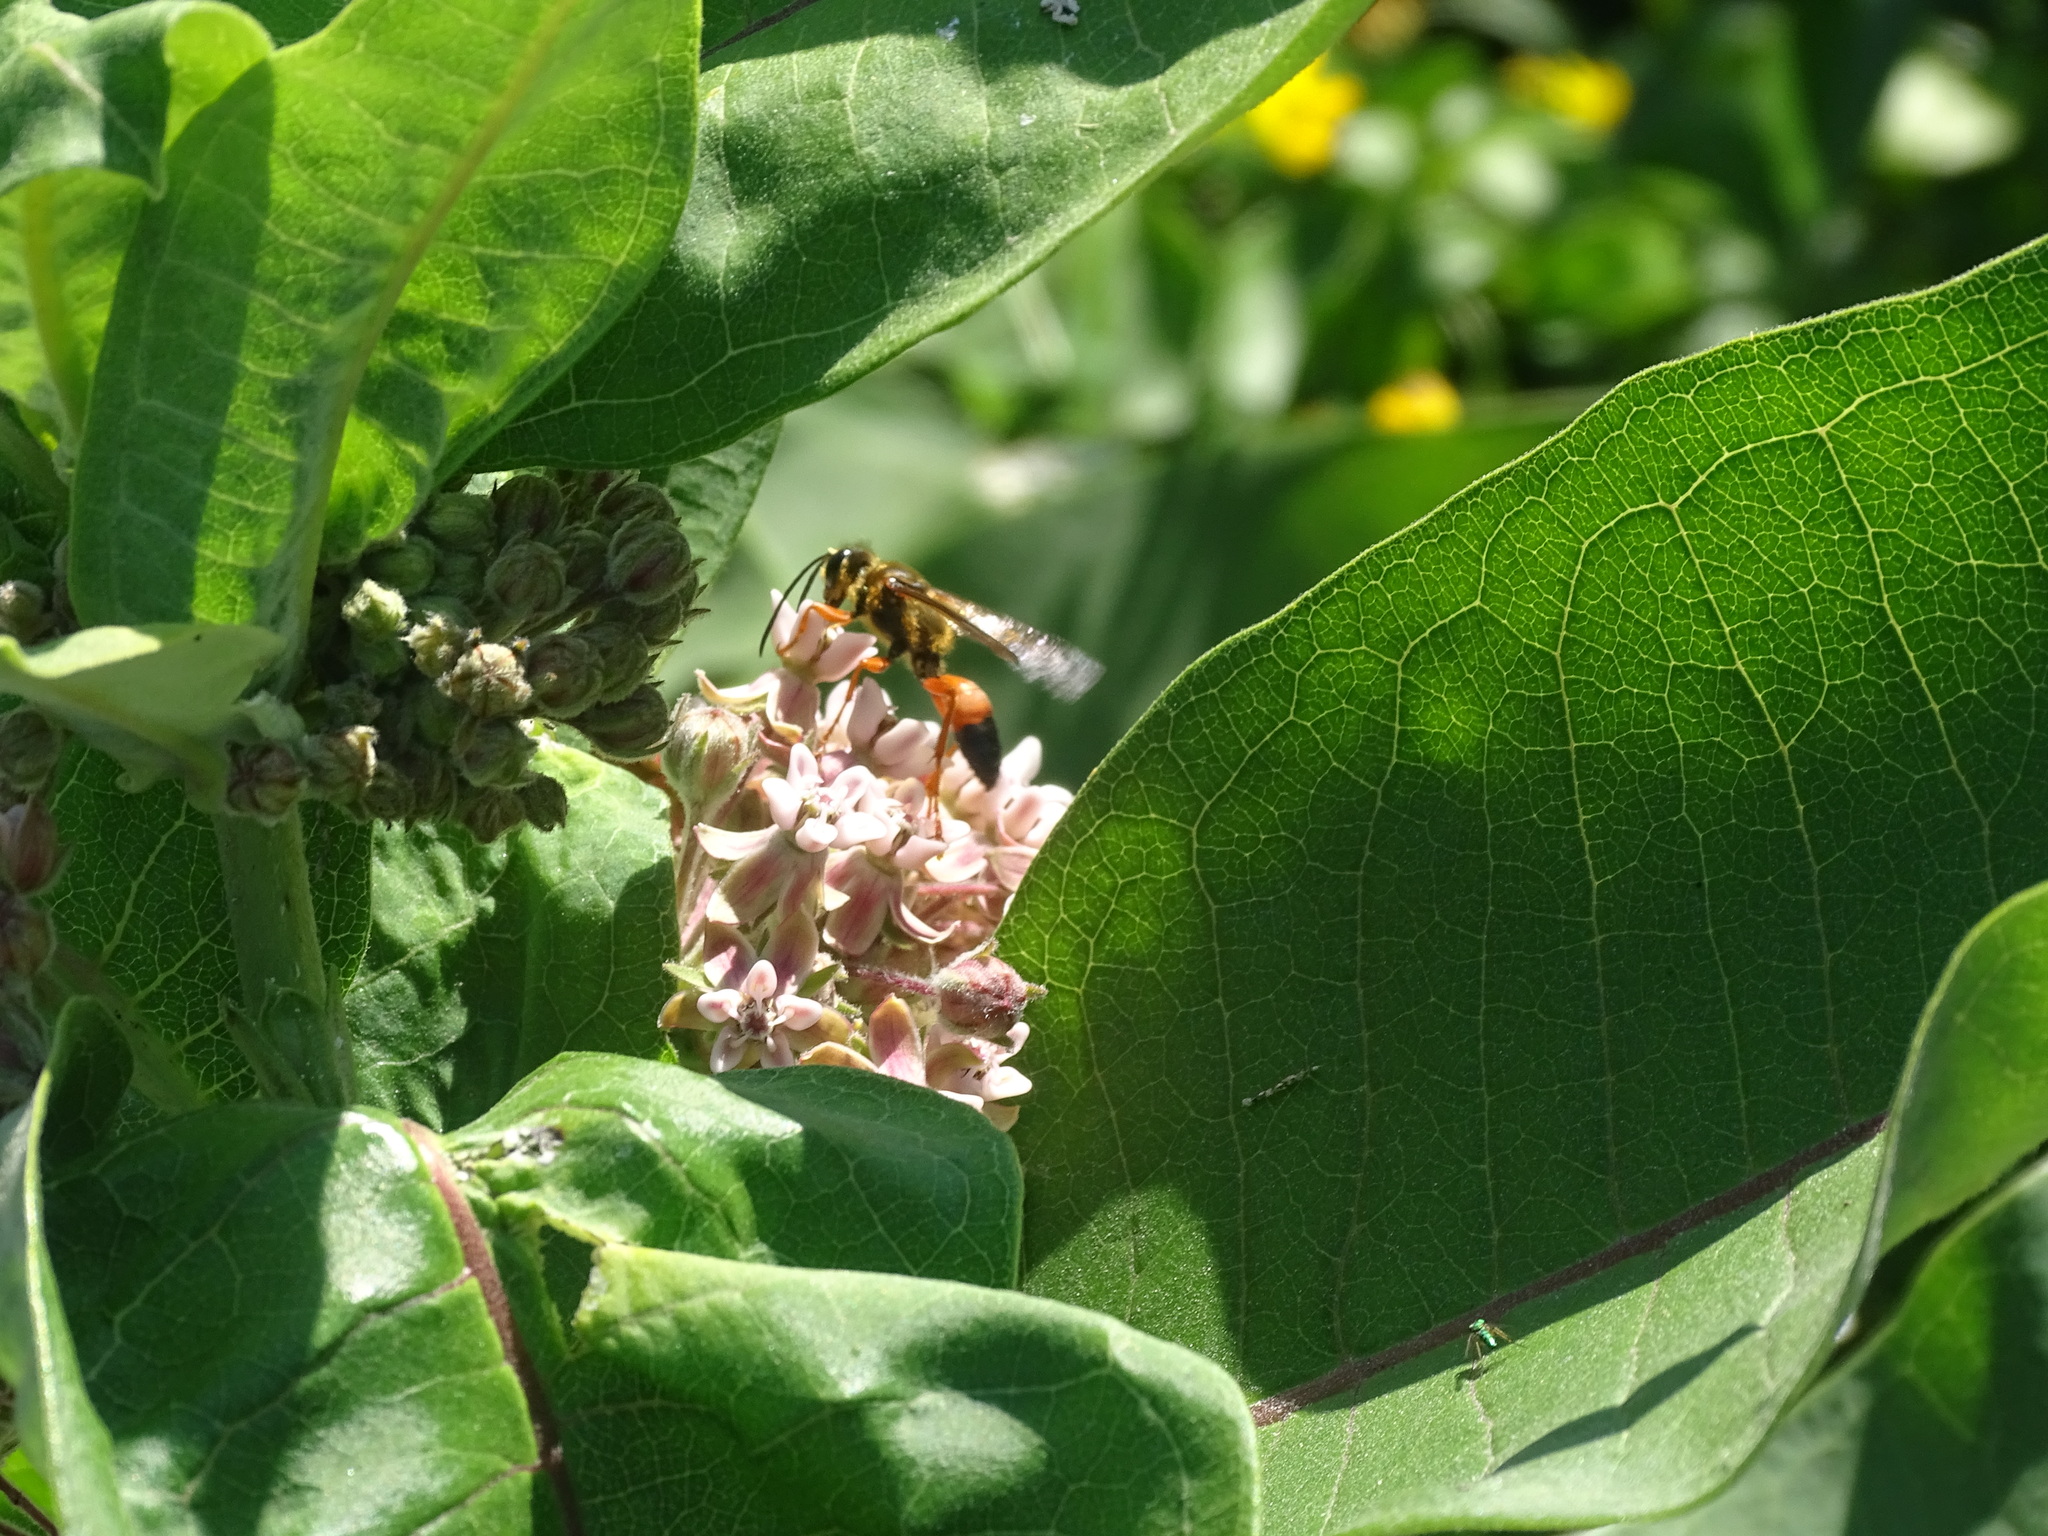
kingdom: Animalia
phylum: Arthropoda
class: Insecta
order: Hymenoptera
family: Sphecidae
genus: Sphex
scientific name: Sphex ichneumoneus
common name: Great golden digger wasp
